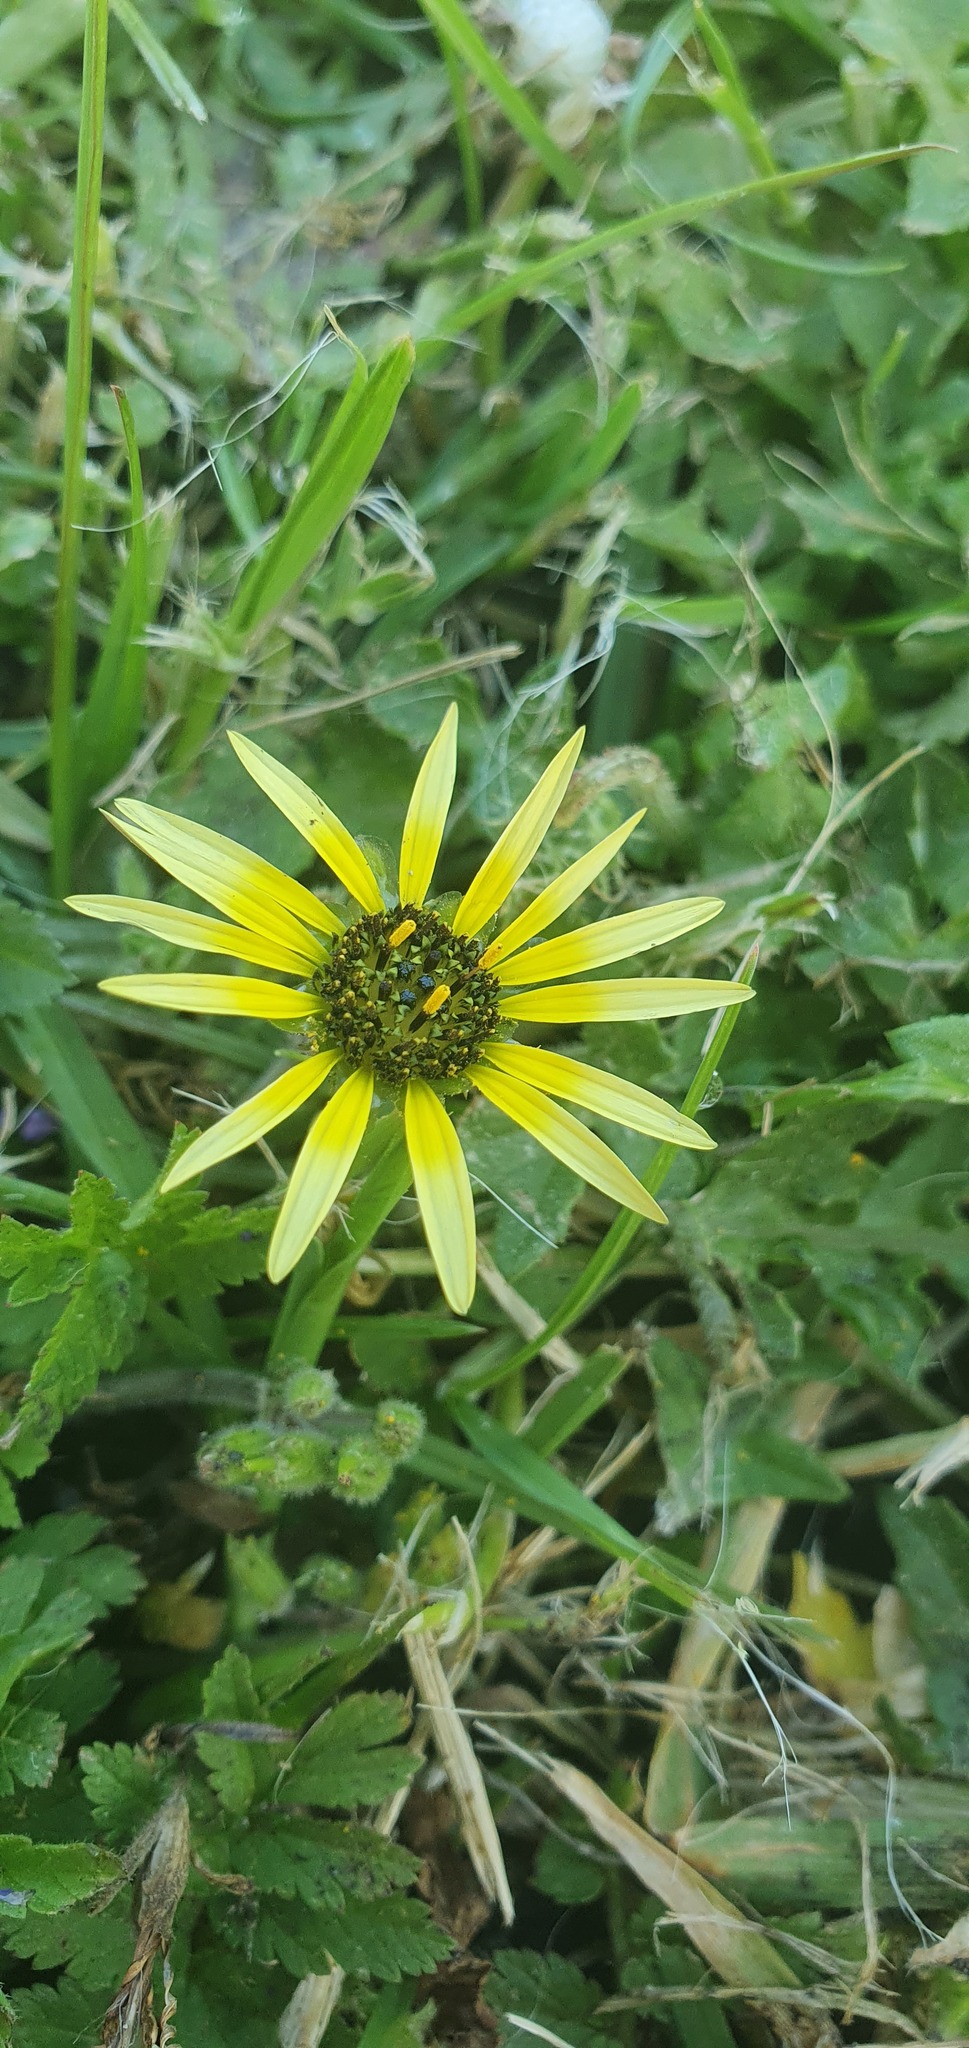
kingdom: Plantae
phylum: Tracheophyta
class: Magnoliopsida
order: Asterales
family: Asteraceae
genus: Arctotheca
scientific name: Arctotheca calendula
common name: Capeweed
